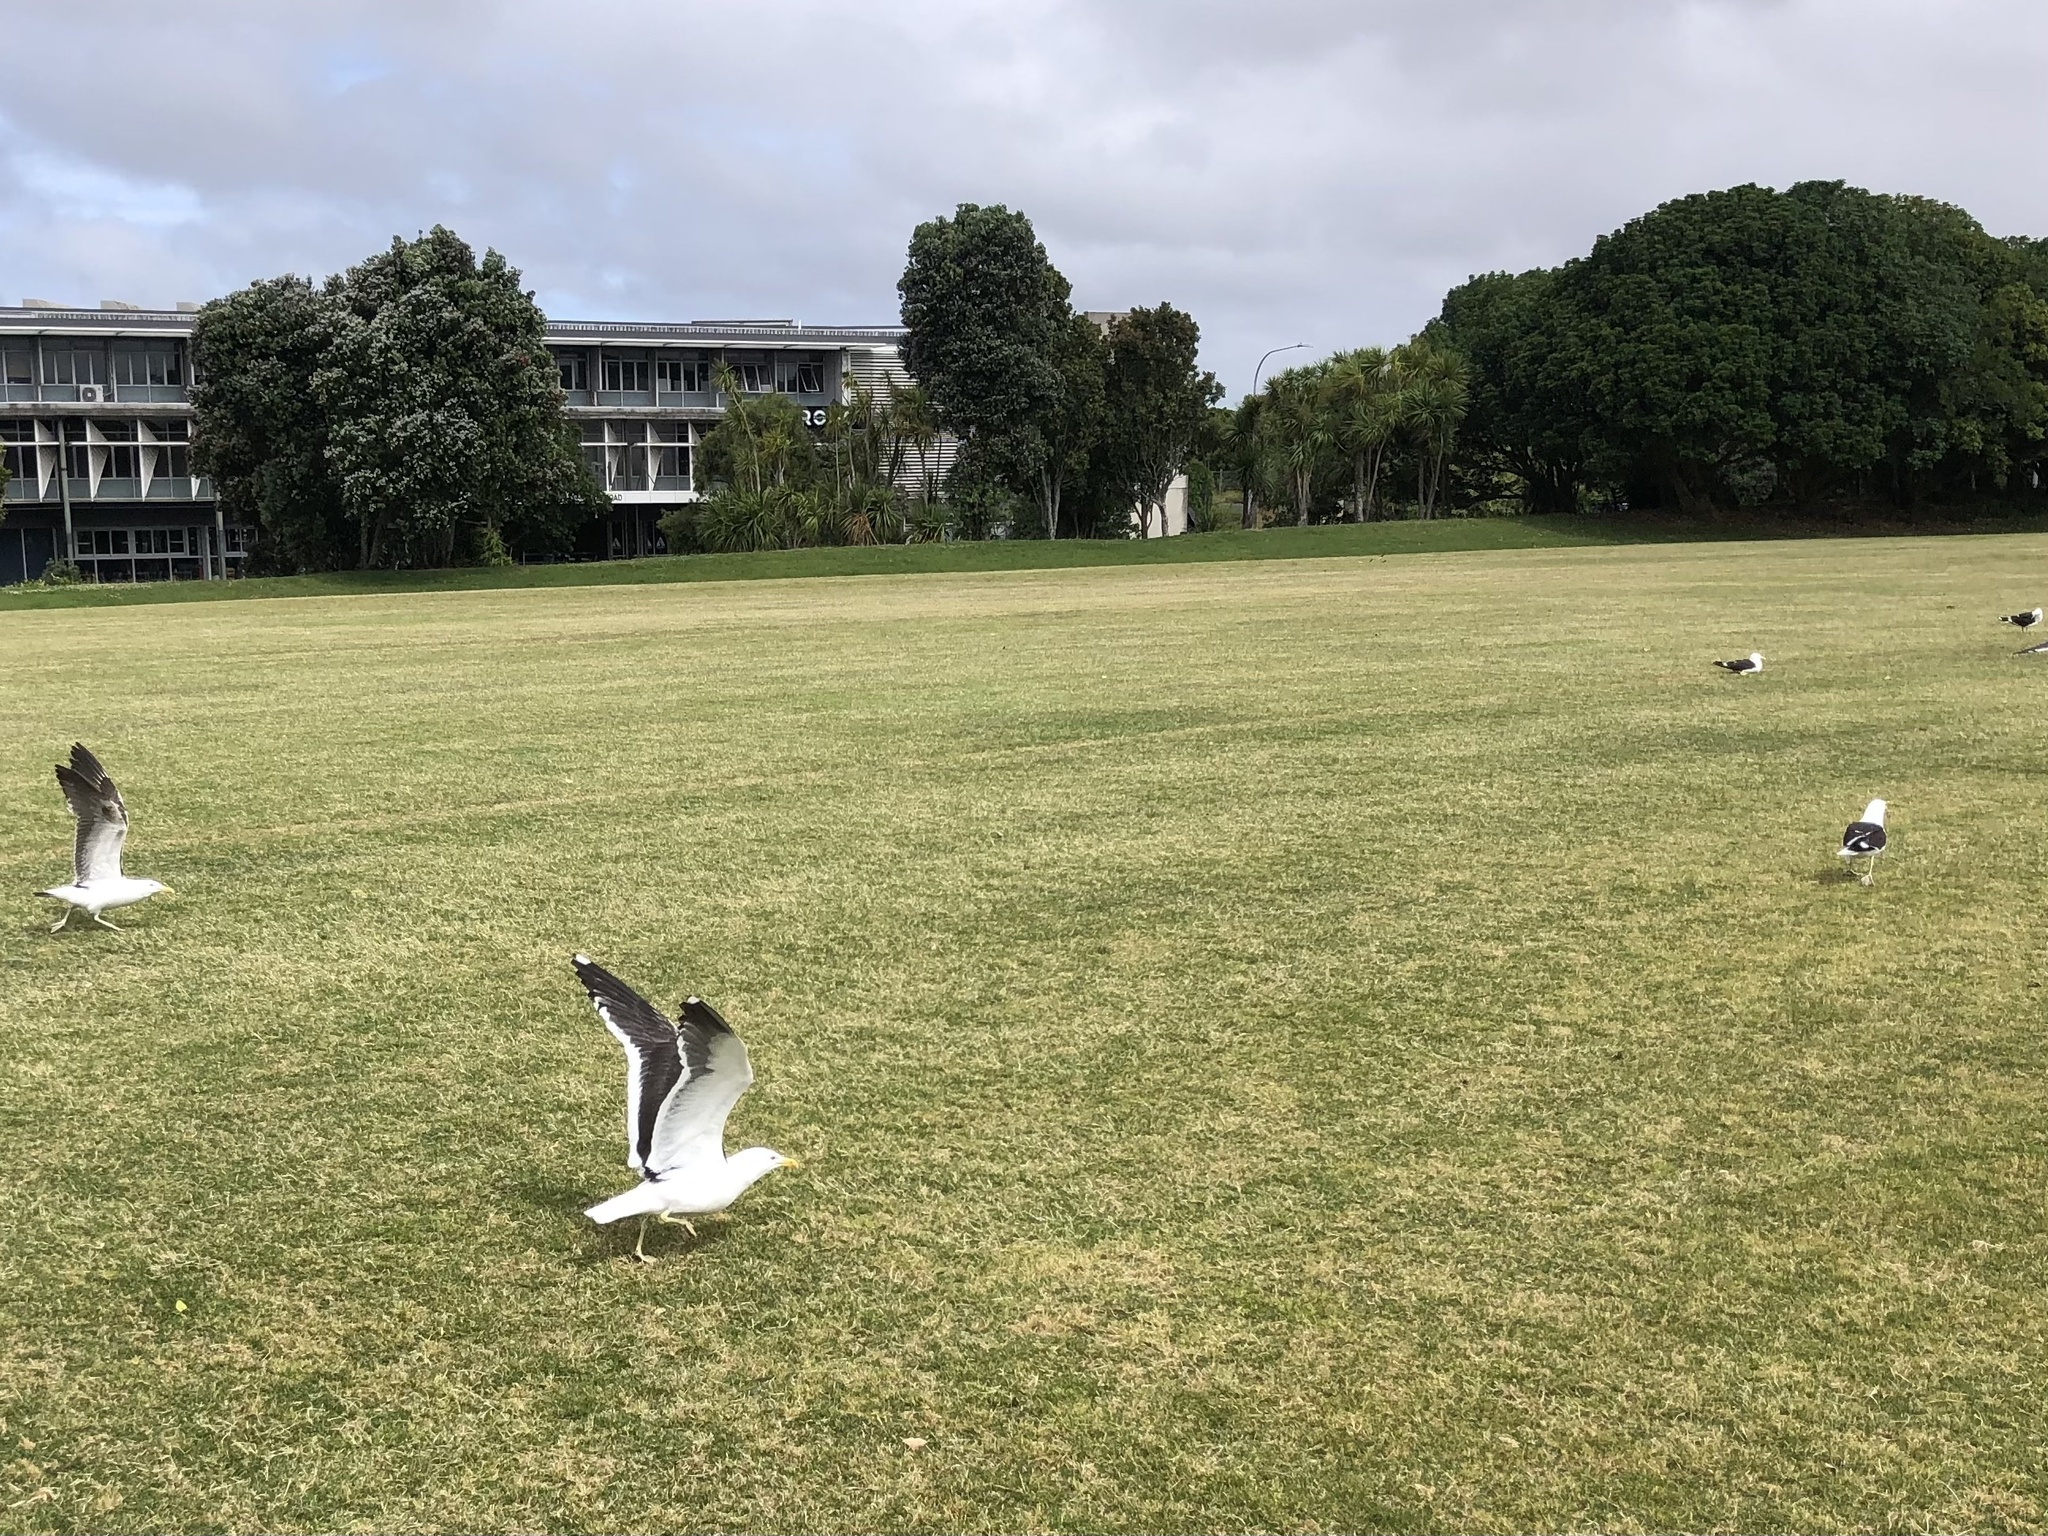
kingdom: Animalia
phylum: Chordata
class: Aves
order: Charadriiformes
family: Laridae
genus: Larus
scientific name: Larus dominicanus
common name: Kelp gull
